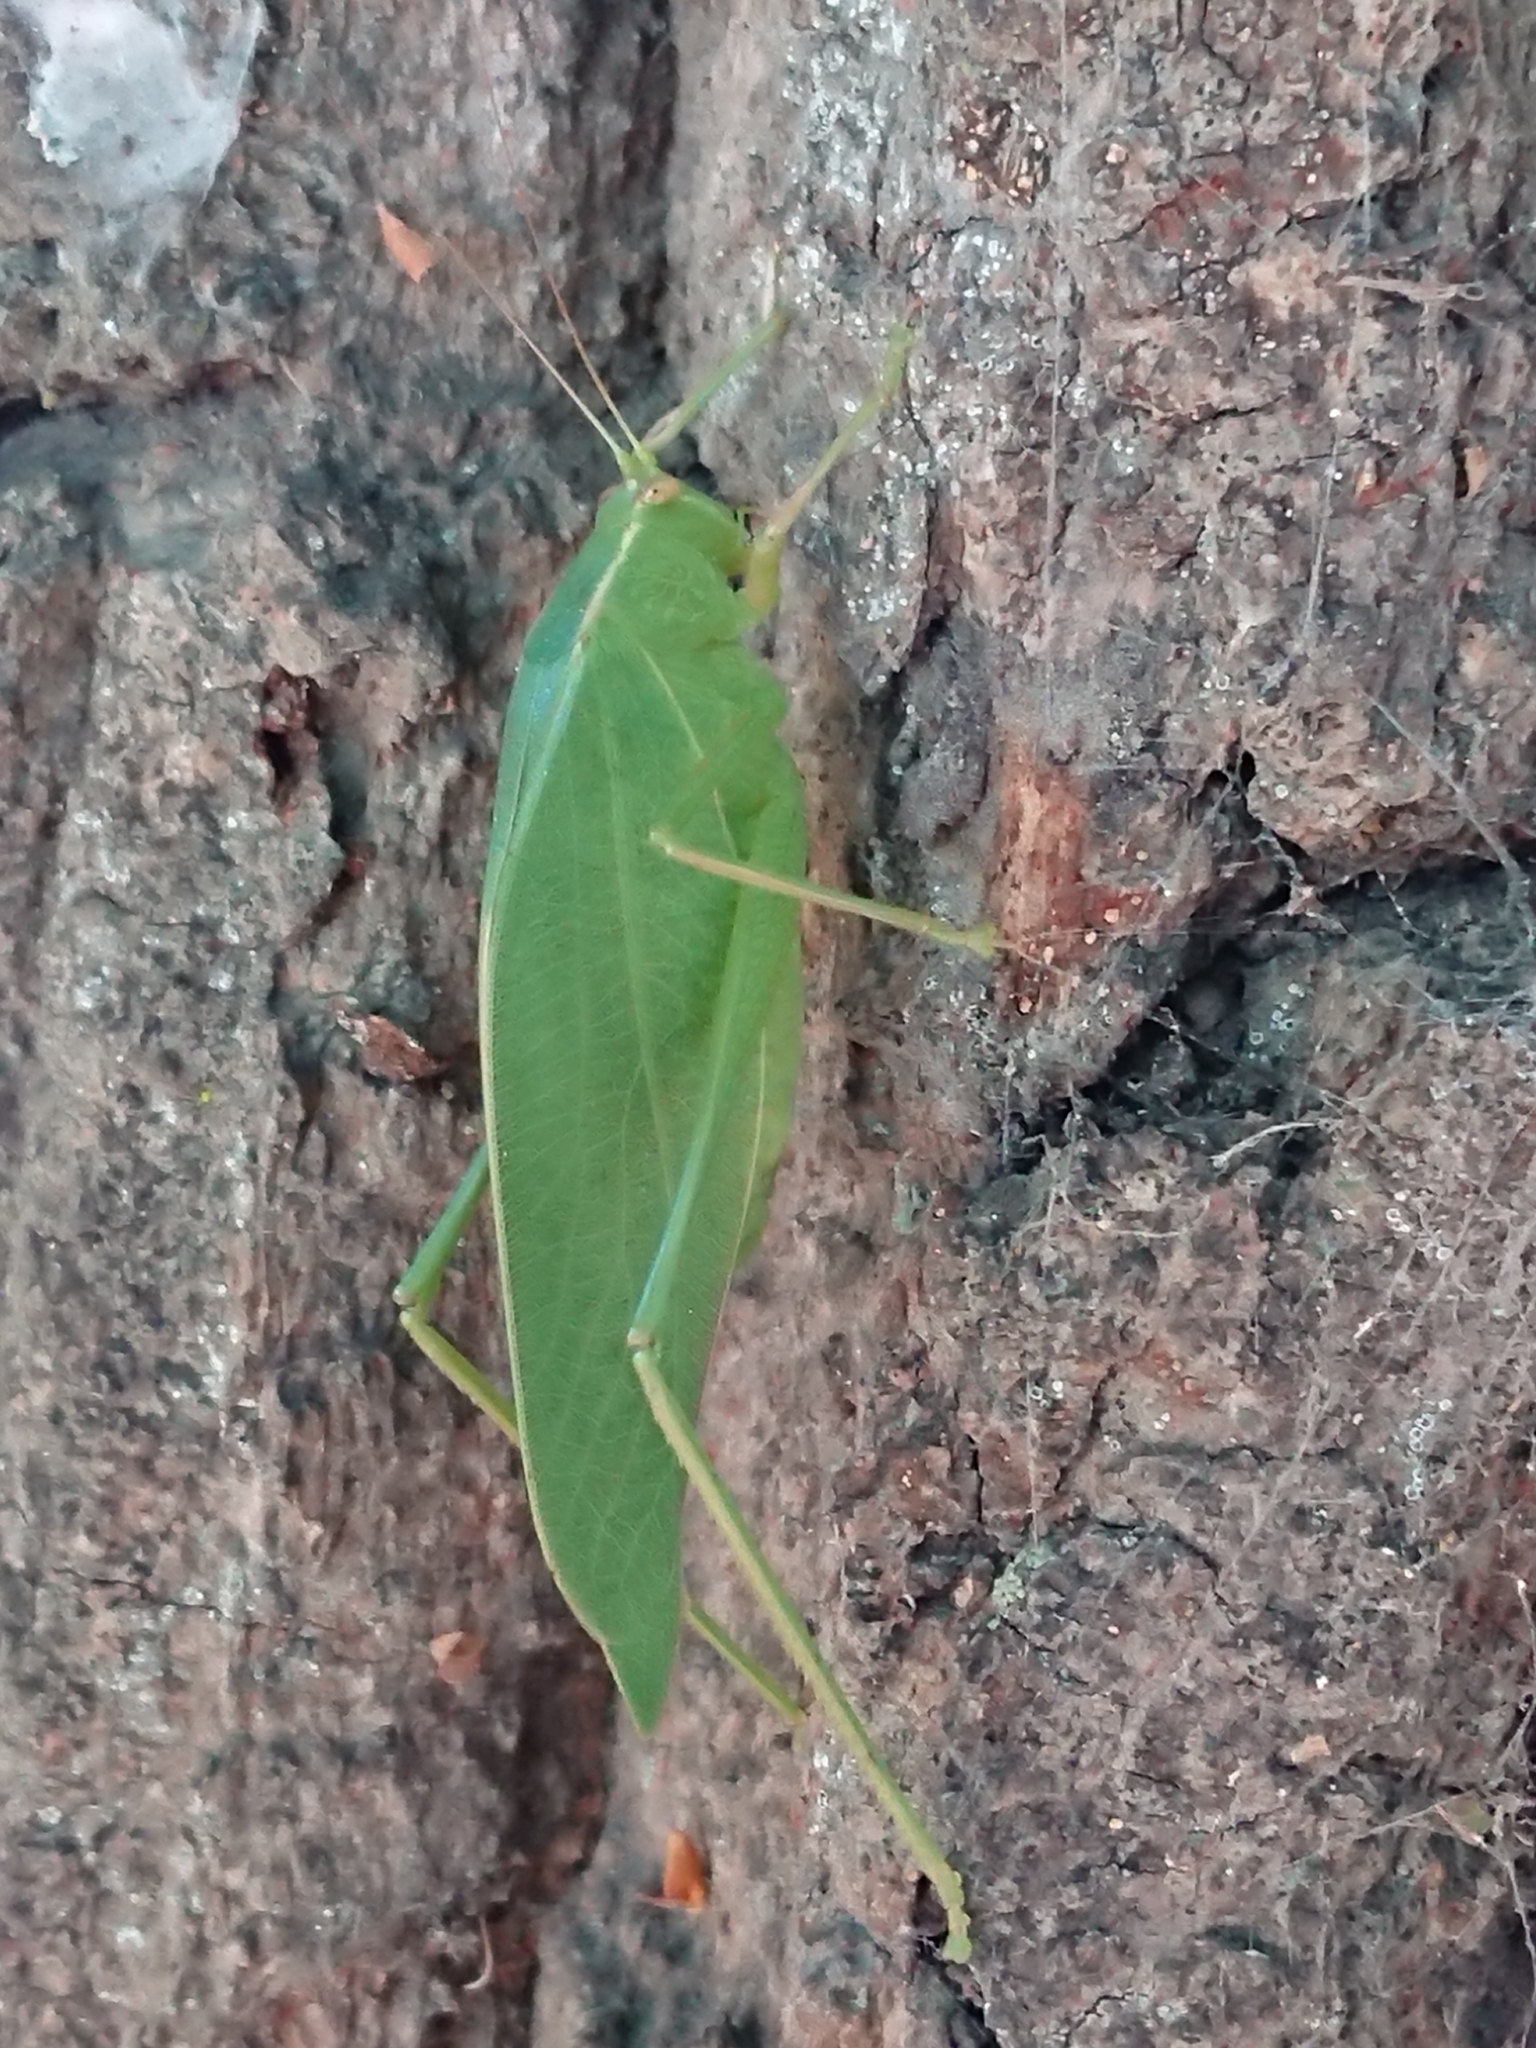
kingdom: Animalia
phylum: Arthropoda
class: Insecta
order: Orthoptera
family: Tettigoniidae
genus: Caedicia
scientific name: Caedicia simplex
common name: Common garden katydid
